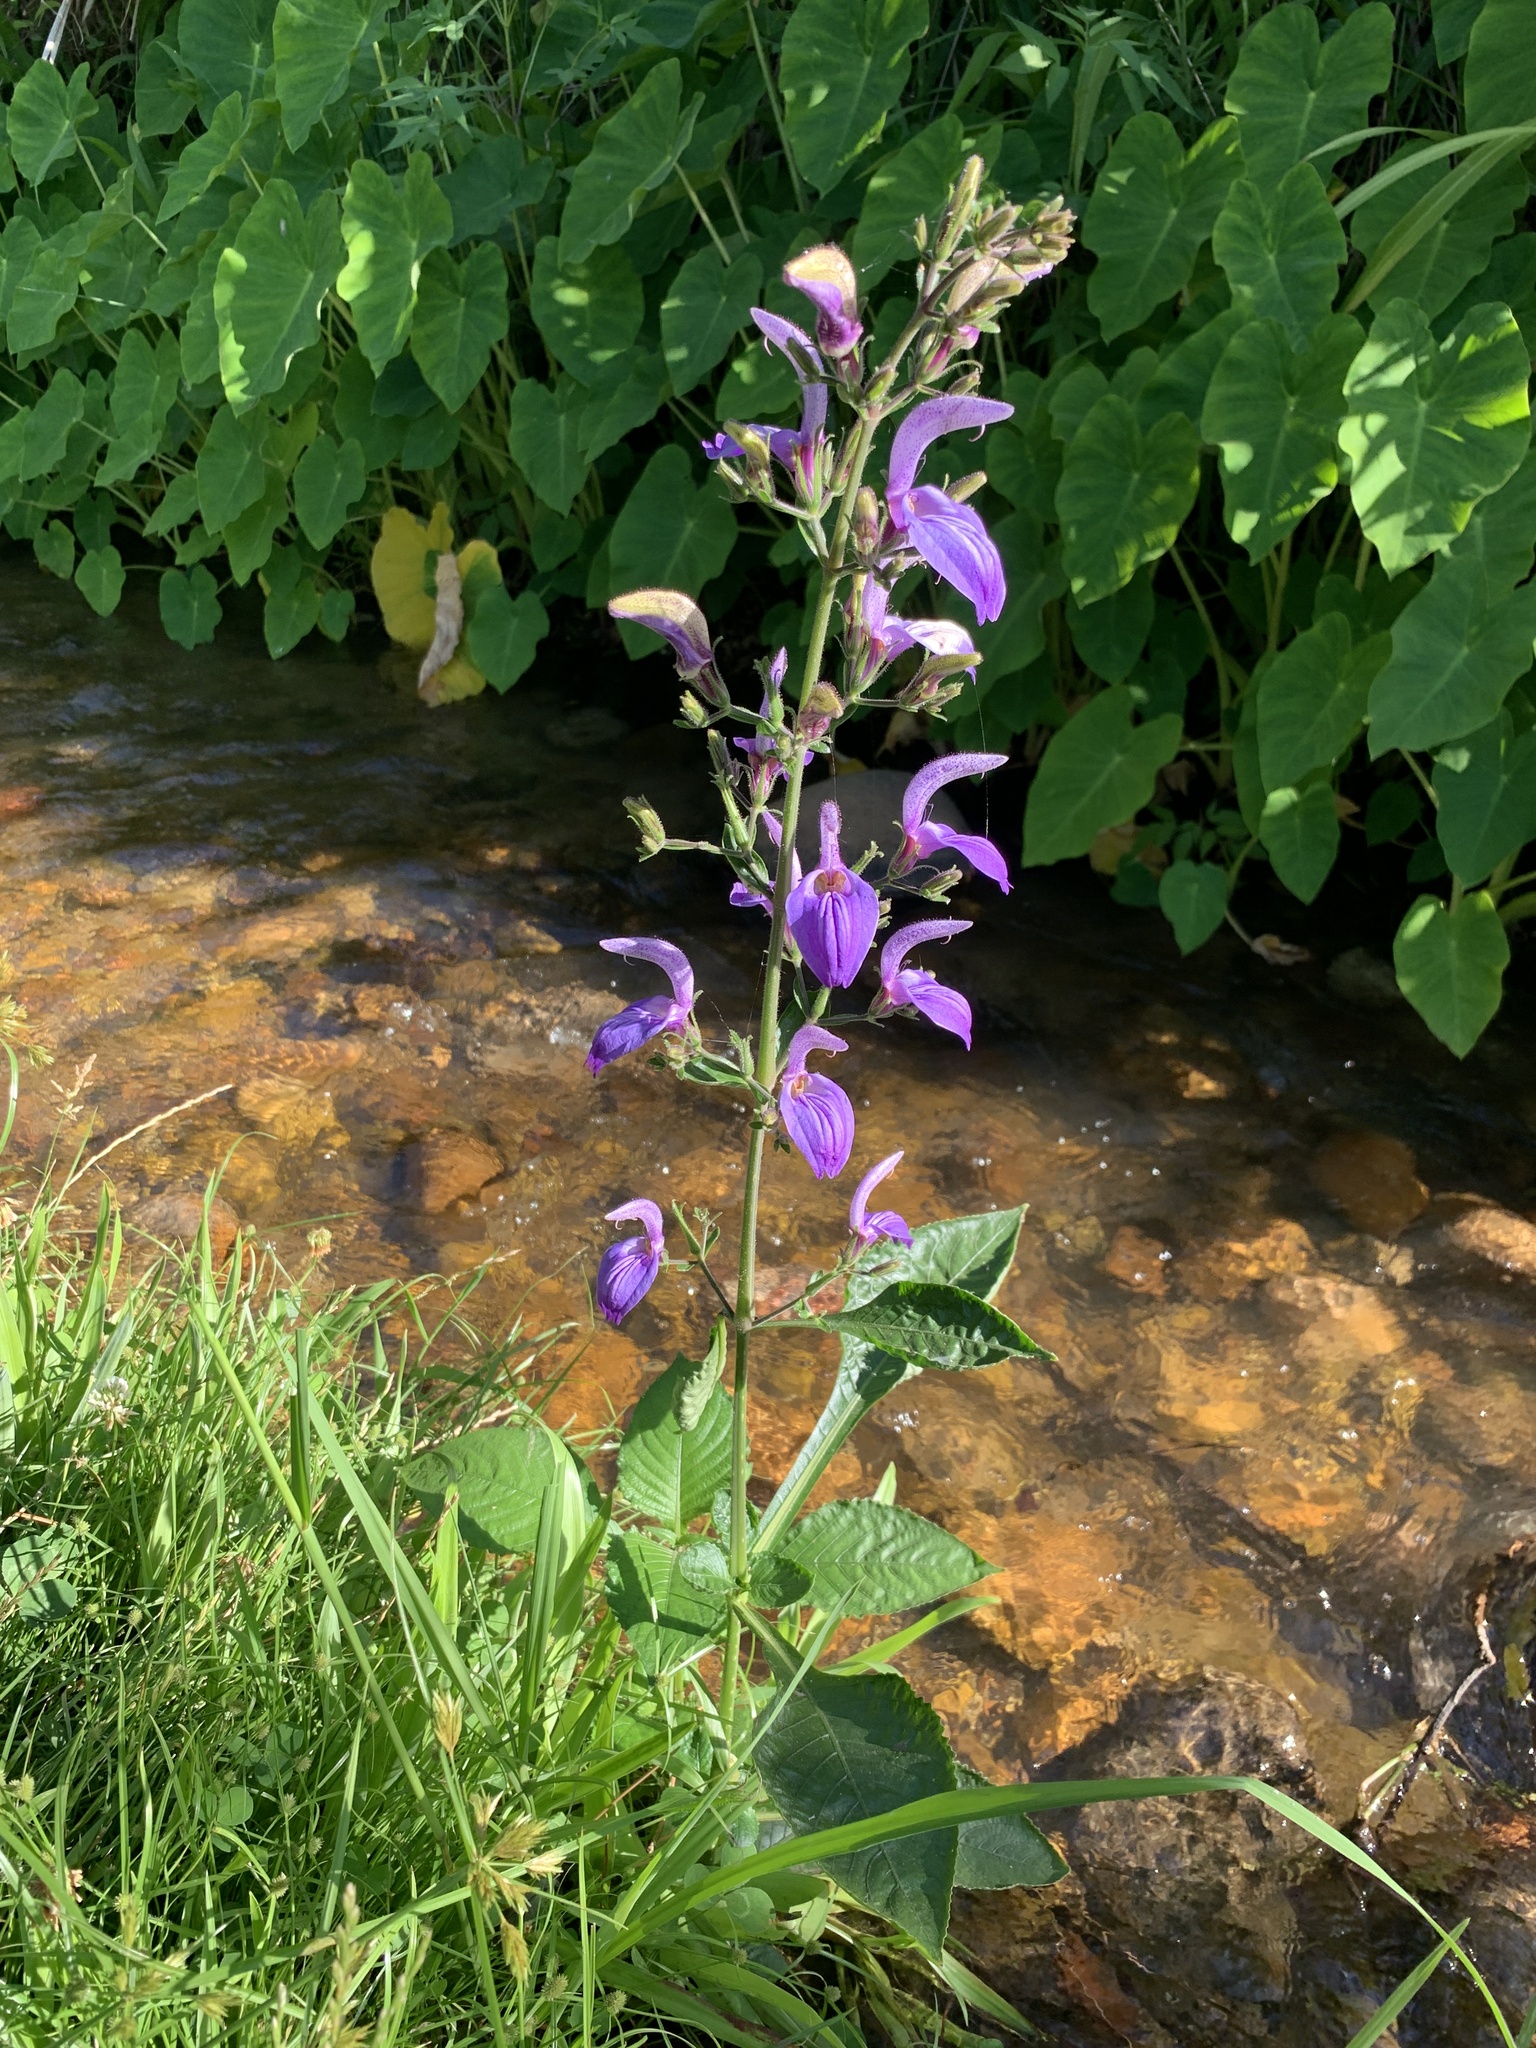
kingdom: Plantae
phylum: Tracheophyta
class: Magnoliopsida
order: Lamiales
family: Acanthaceae
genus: Brillantaisia
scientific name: Brillantaisia owariensis
